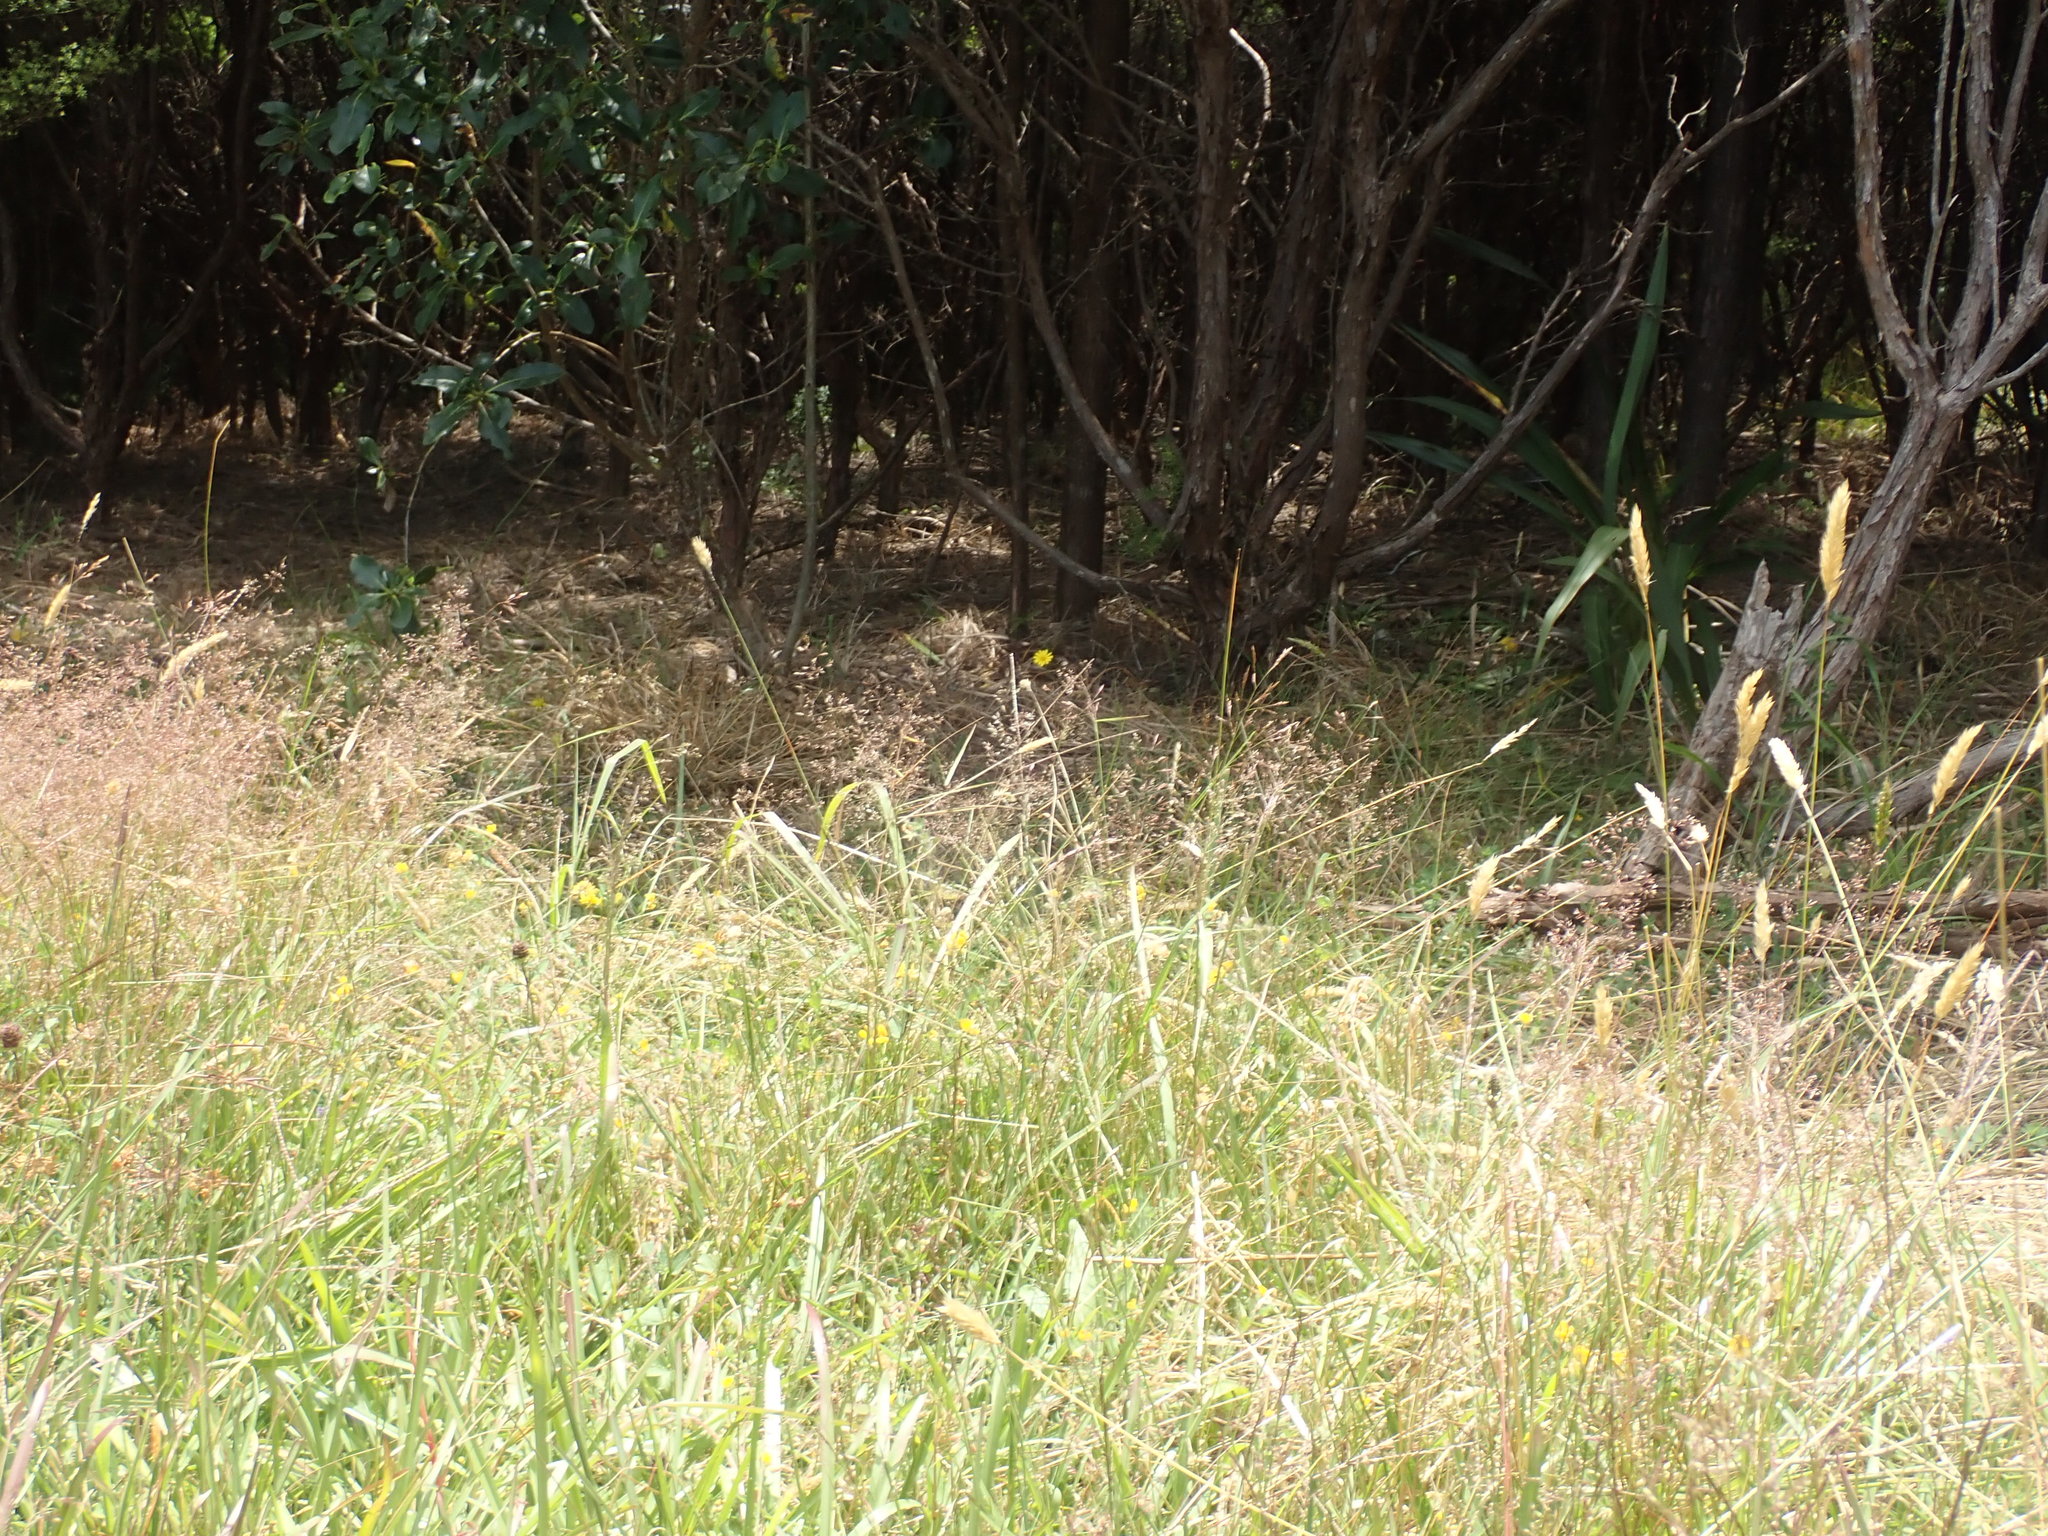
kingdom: Plantae
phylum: Tracheophyta
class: Liliopsida
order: Poales
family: Poaceae
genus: Anthoxanthum
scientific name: Anthoxanthum odoratum
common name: Sweet vernalgrass
